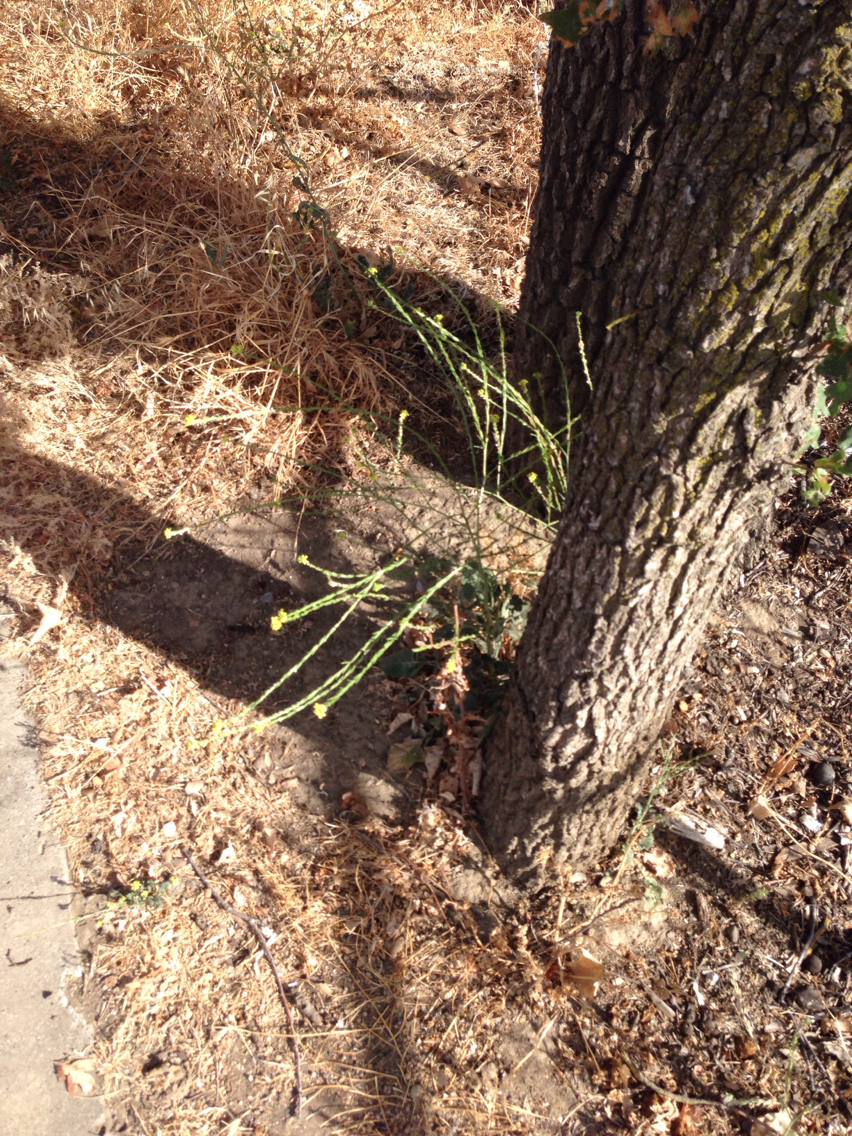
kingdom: Plantae
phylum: Tracheophyta
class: Magnoliopsida
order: Brassicales
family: Brassicaceae
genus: Hirschfeldia
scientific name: Hirschfeldia incana
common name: Hoary mustard
